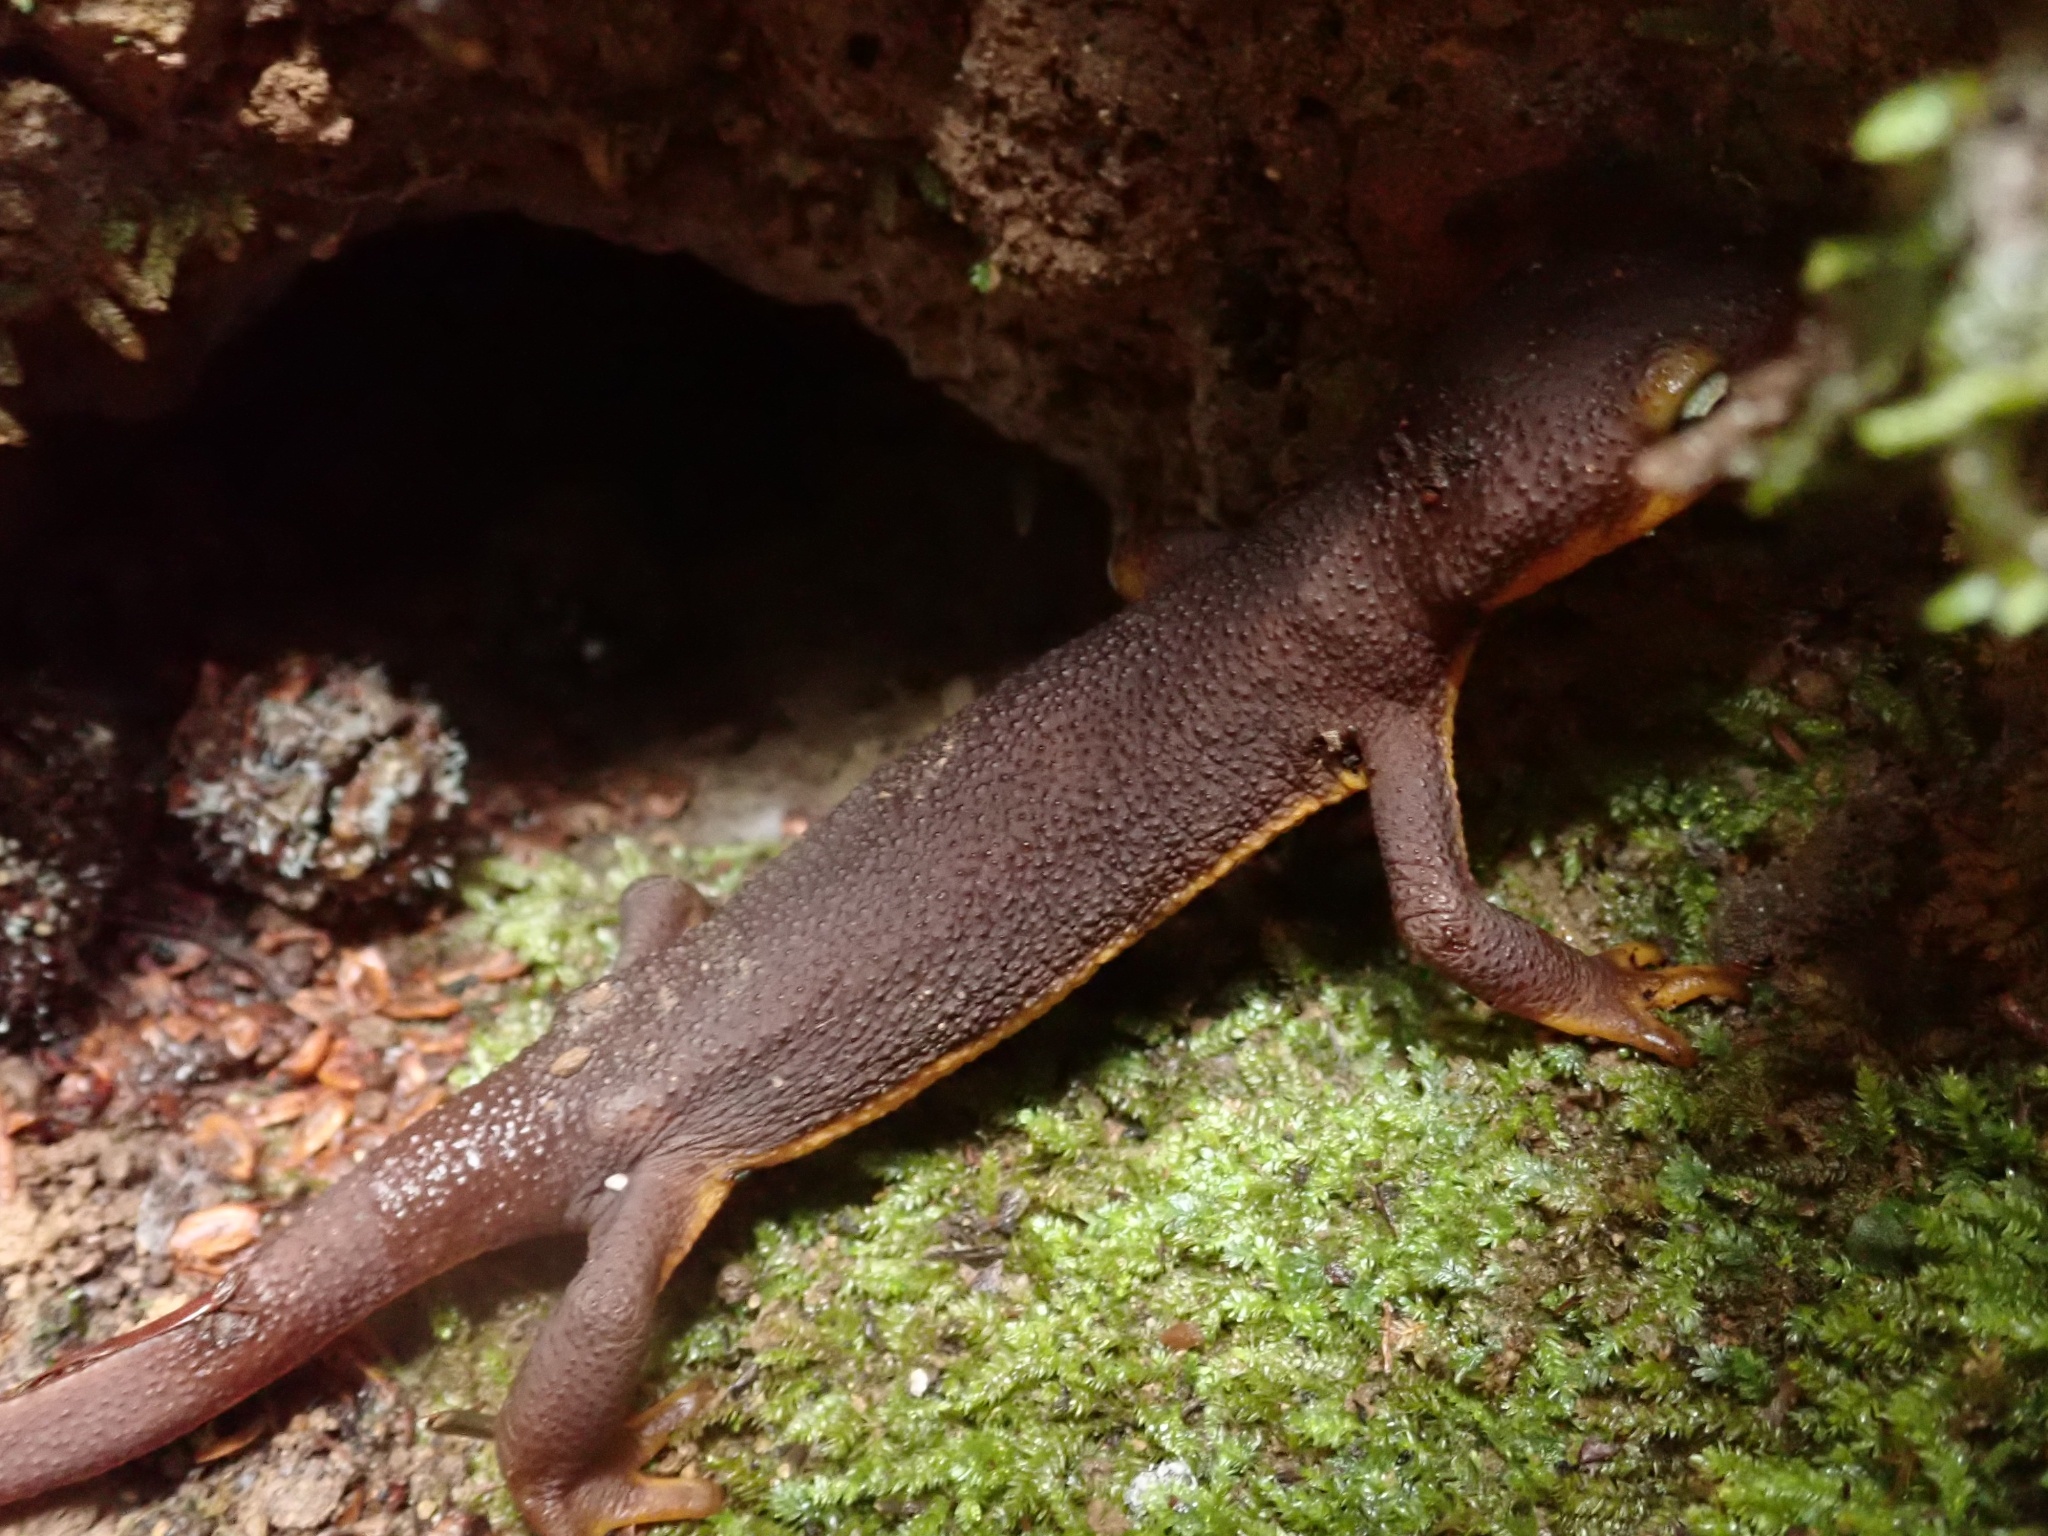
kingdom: Animalia
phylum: Chordata
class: Amphibia
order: Caudata
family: Salamandridae
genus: Taricha
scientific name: Taricha torosa
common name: California newt
